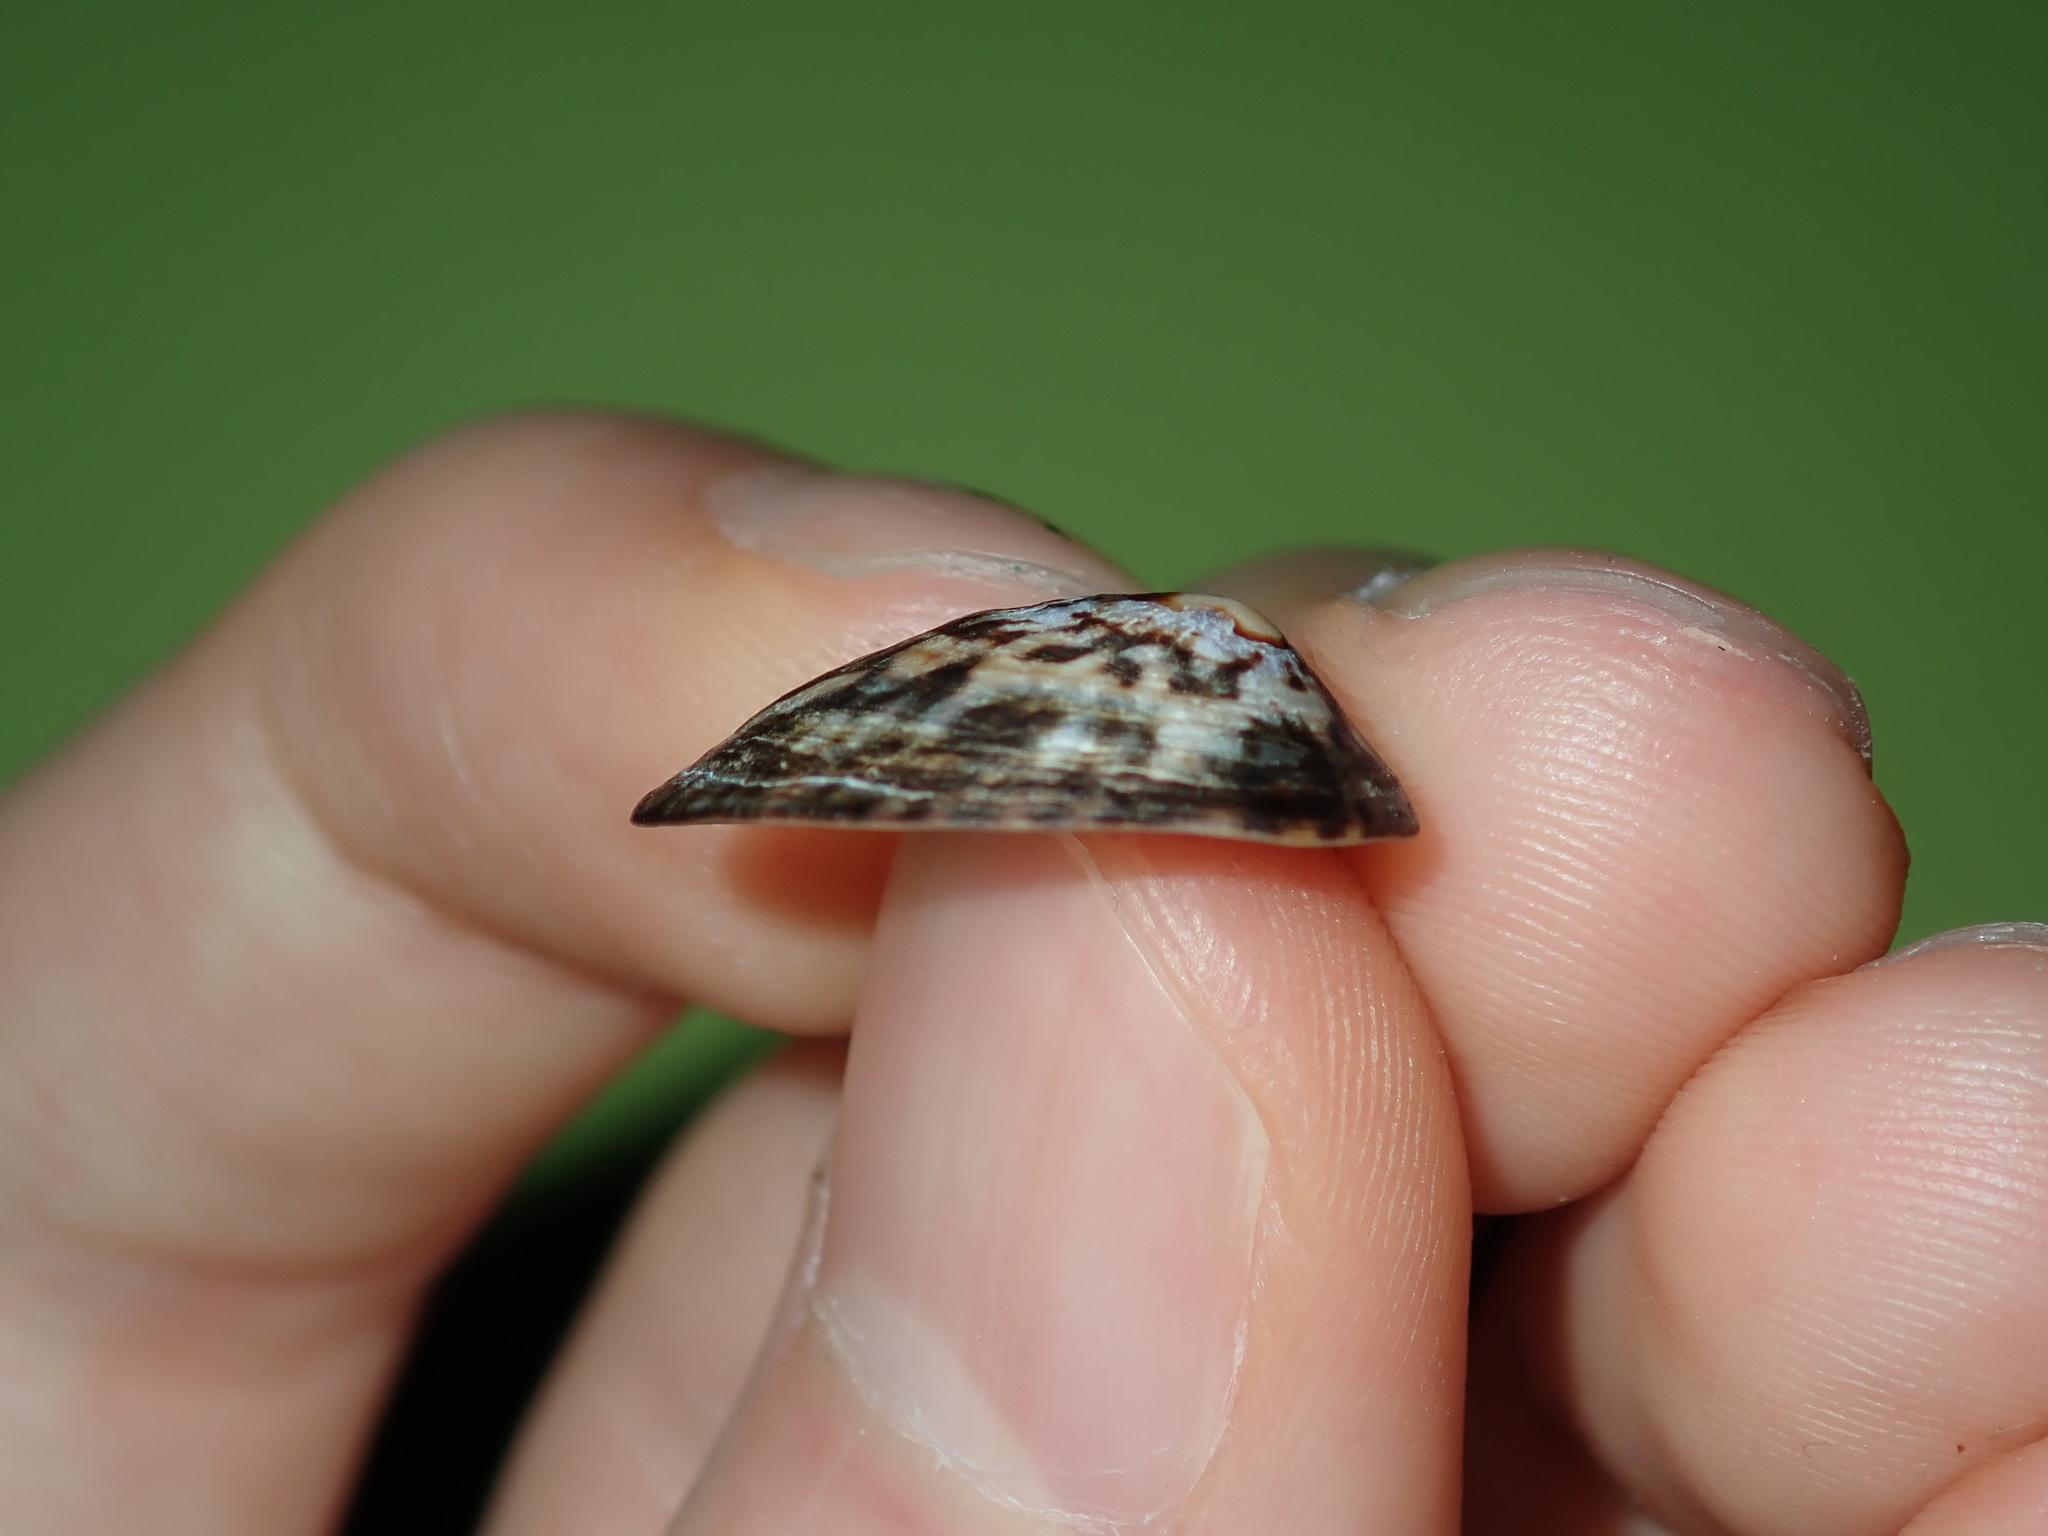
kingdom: Animalia
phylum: Mollusca
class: Gastropoda
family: Lottiidae
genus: Notoacmea
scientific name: Notoacmea petterdi
